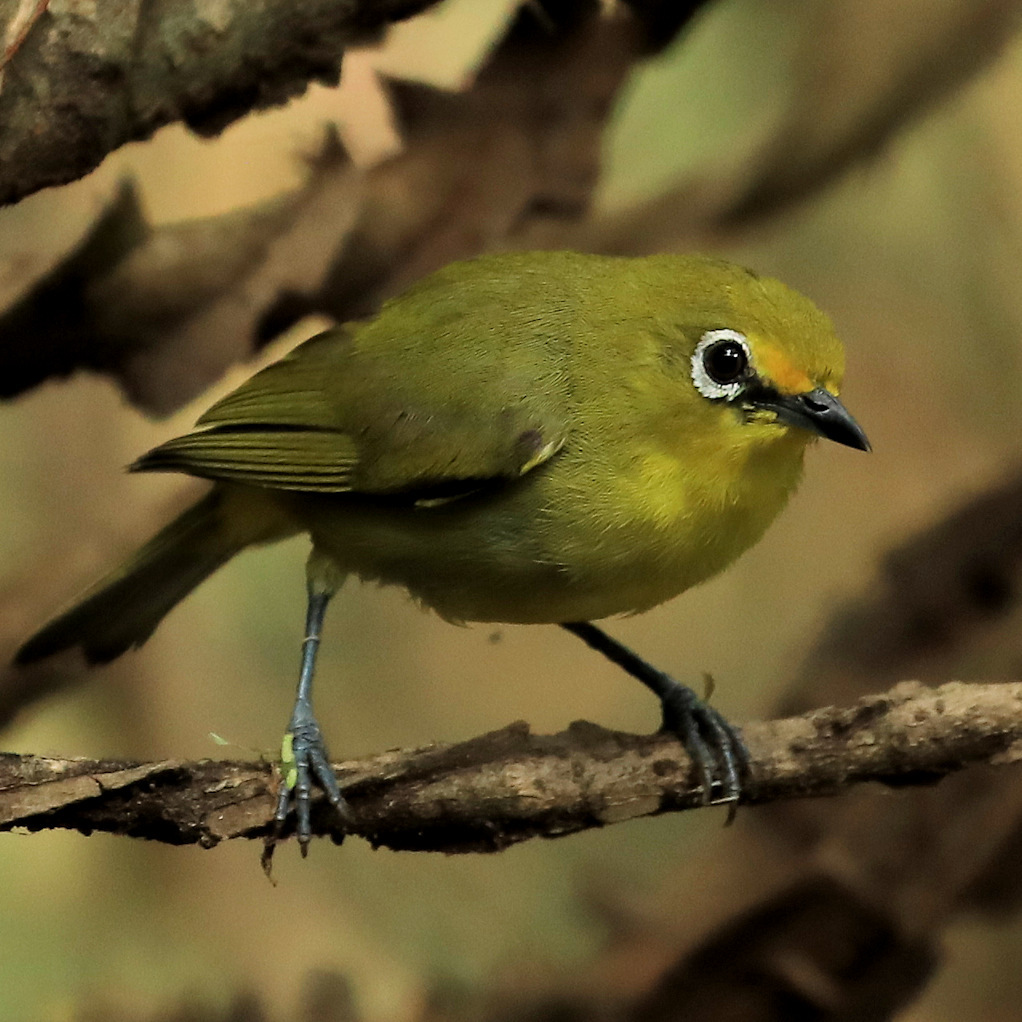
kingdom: Animalia
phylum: Chordata
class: Aves
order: Passeriformes
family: Zosteropidae
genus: Zosterops
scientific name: Zosterops virens
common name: Cape white-eye
